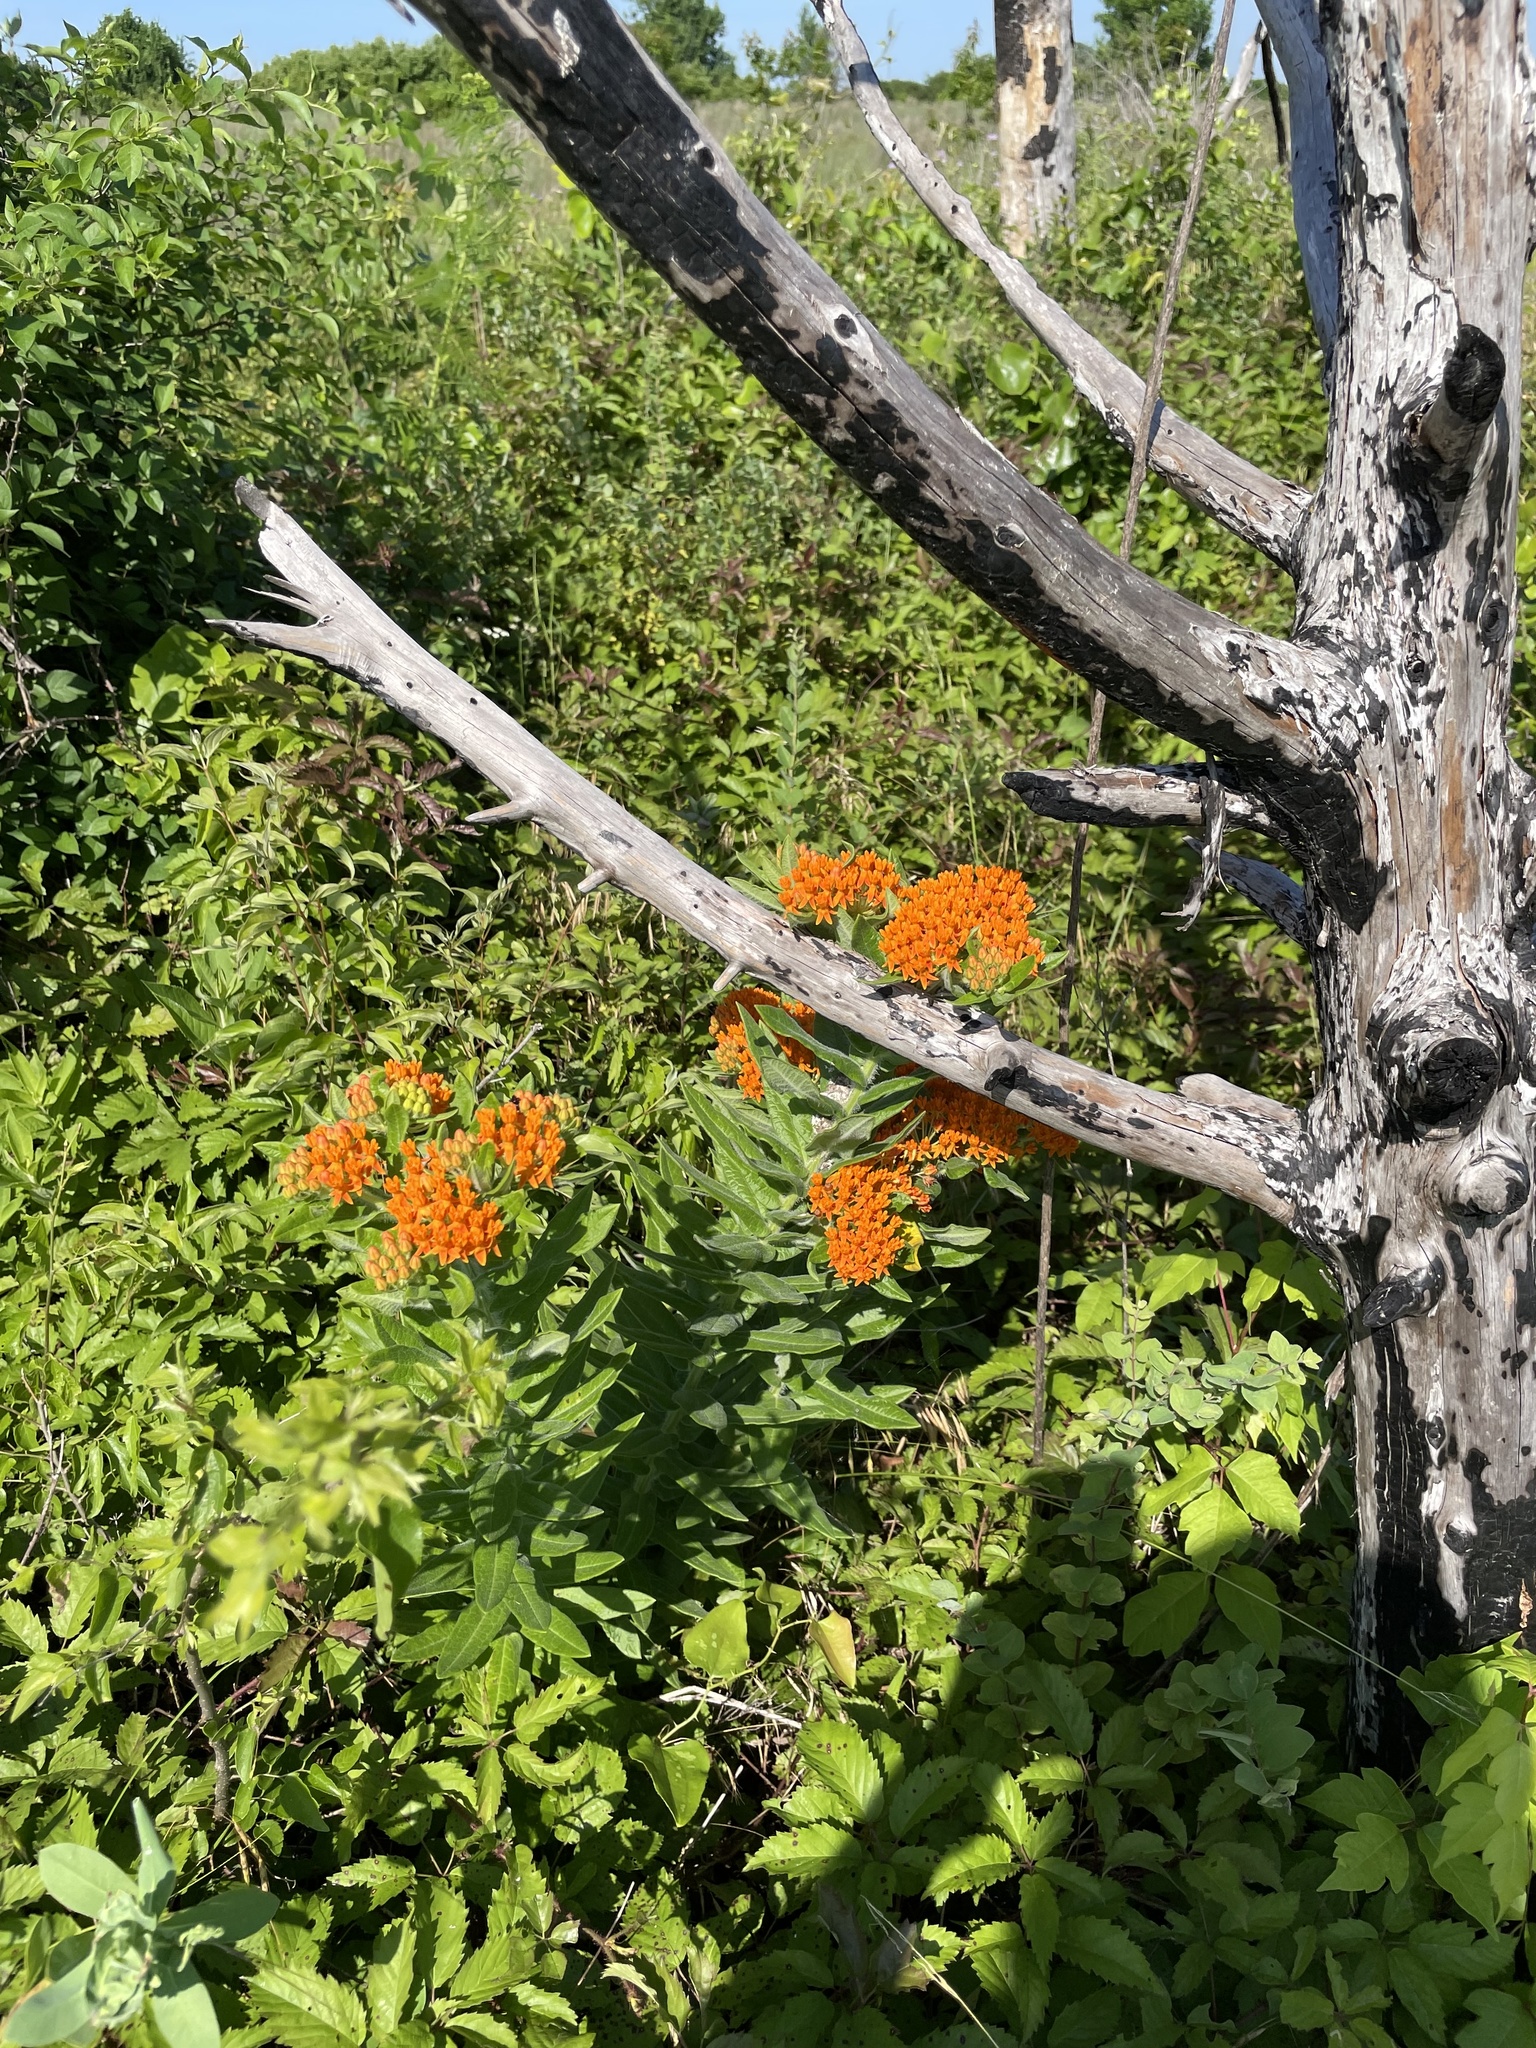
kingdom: Plantae
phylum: Tracheophyta
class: Magnoliopsida
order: Gentianales
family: Apocynaceae
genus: Asclepias
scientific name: Asclepias tuberosa
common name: Butterfly milkweed
